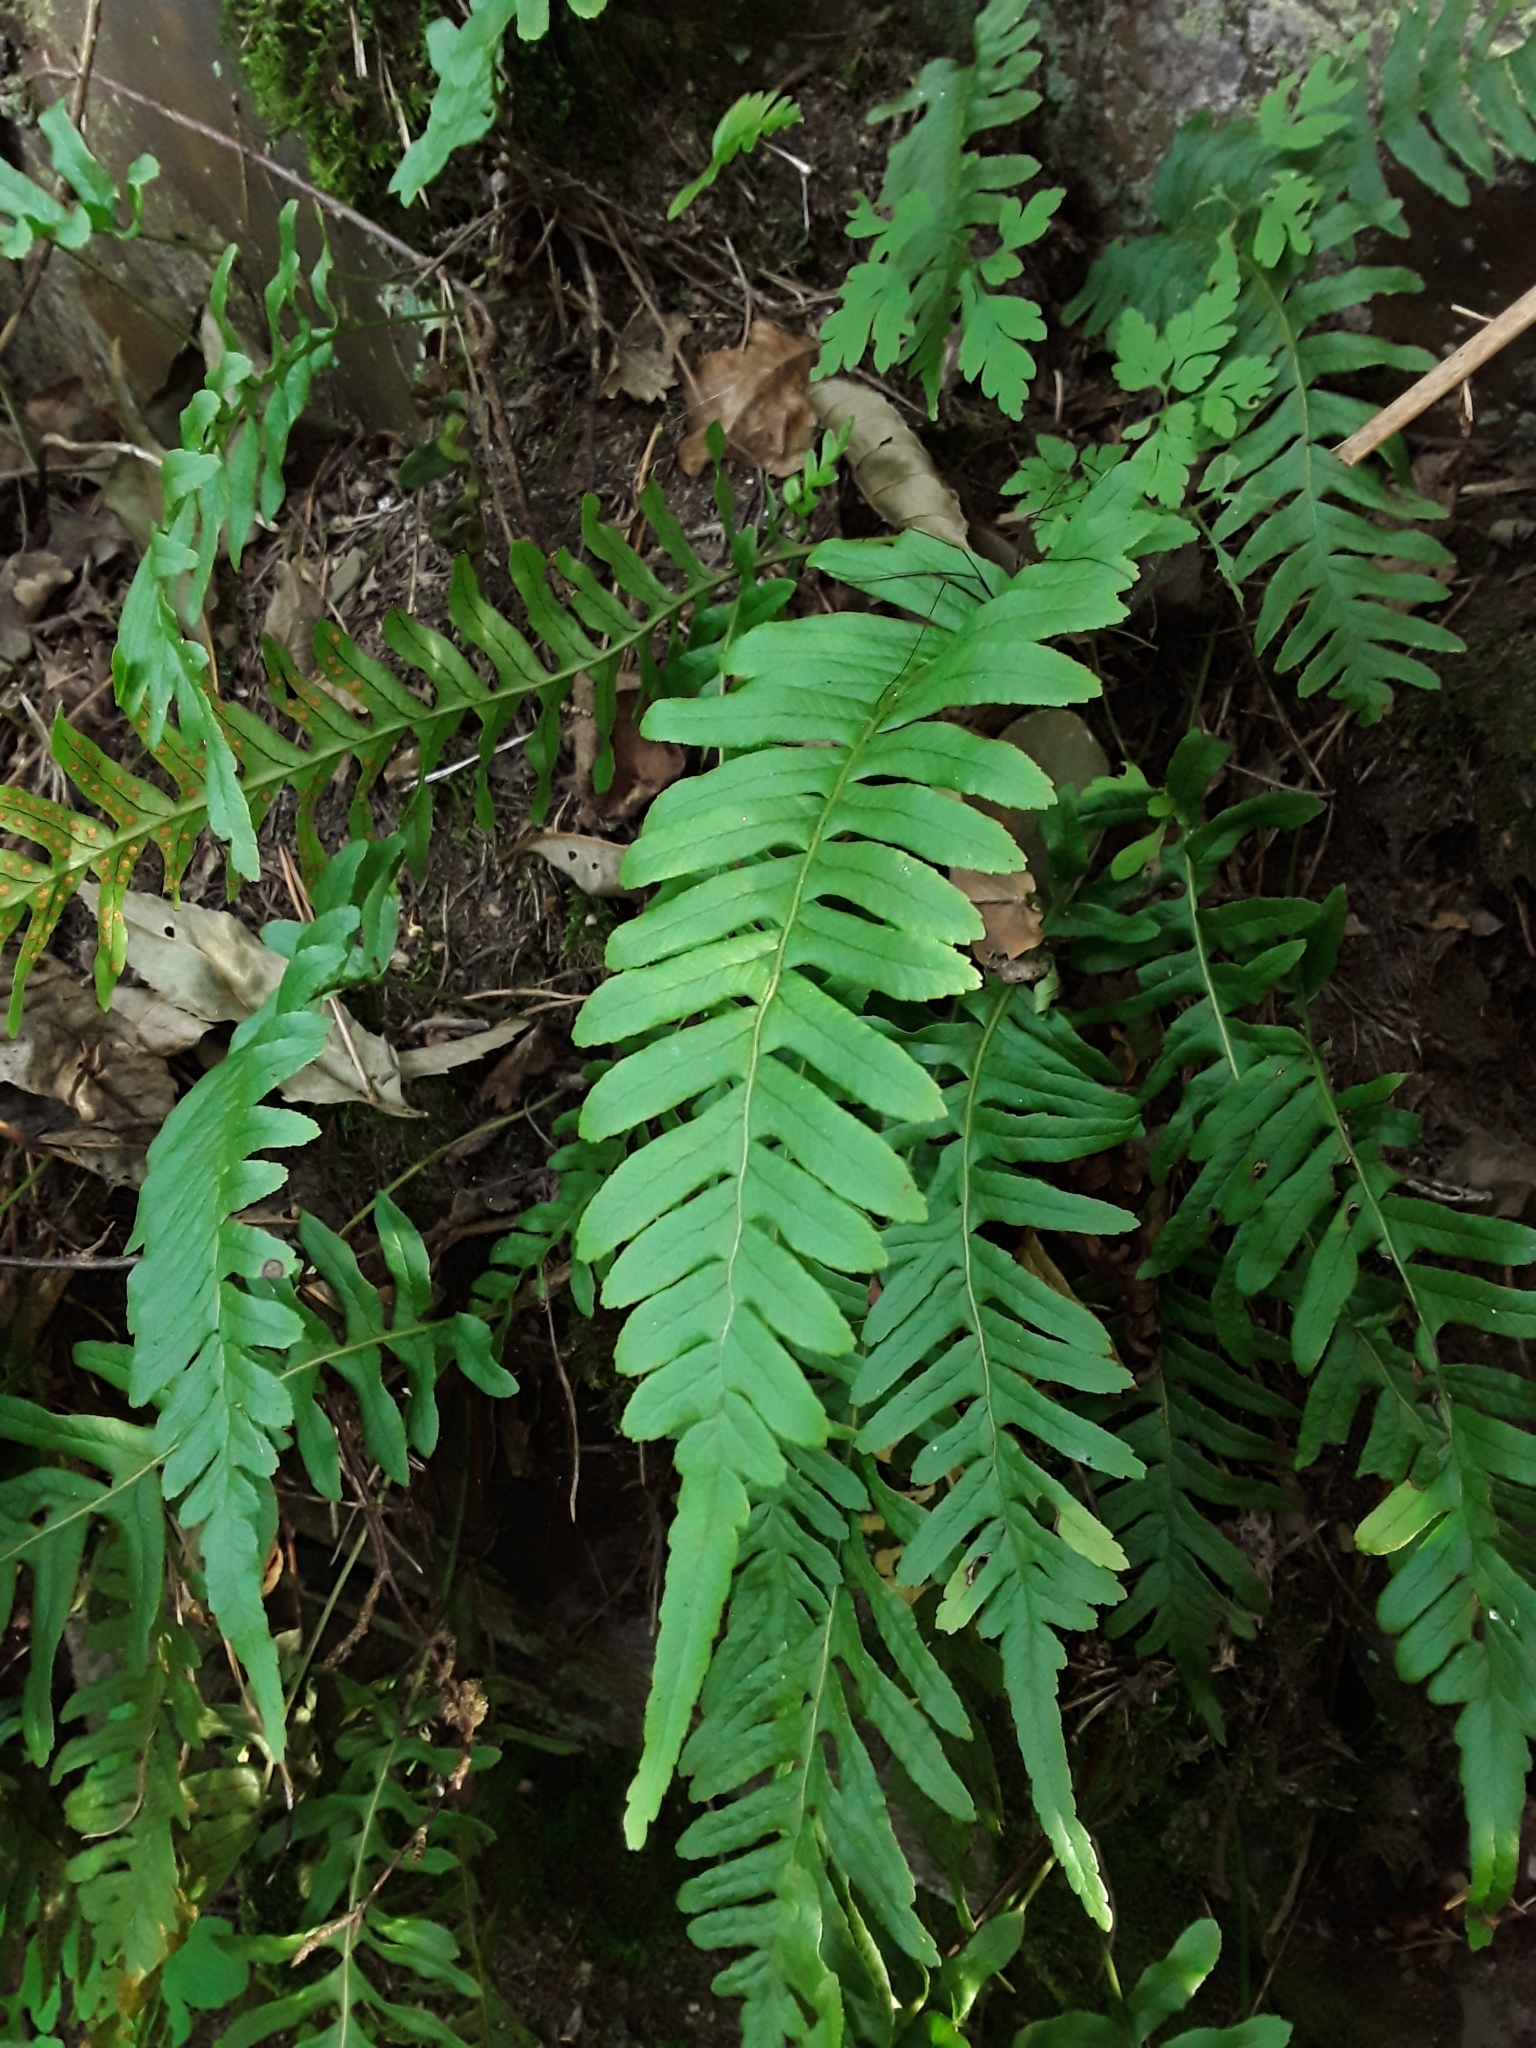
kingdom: Plantae
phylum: Tracheophyta
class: Polypodiopsida
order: Polypodiales
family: Polypodiaceae
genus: Polypodium
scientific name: Polypodium vulgare
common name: Common polypody
